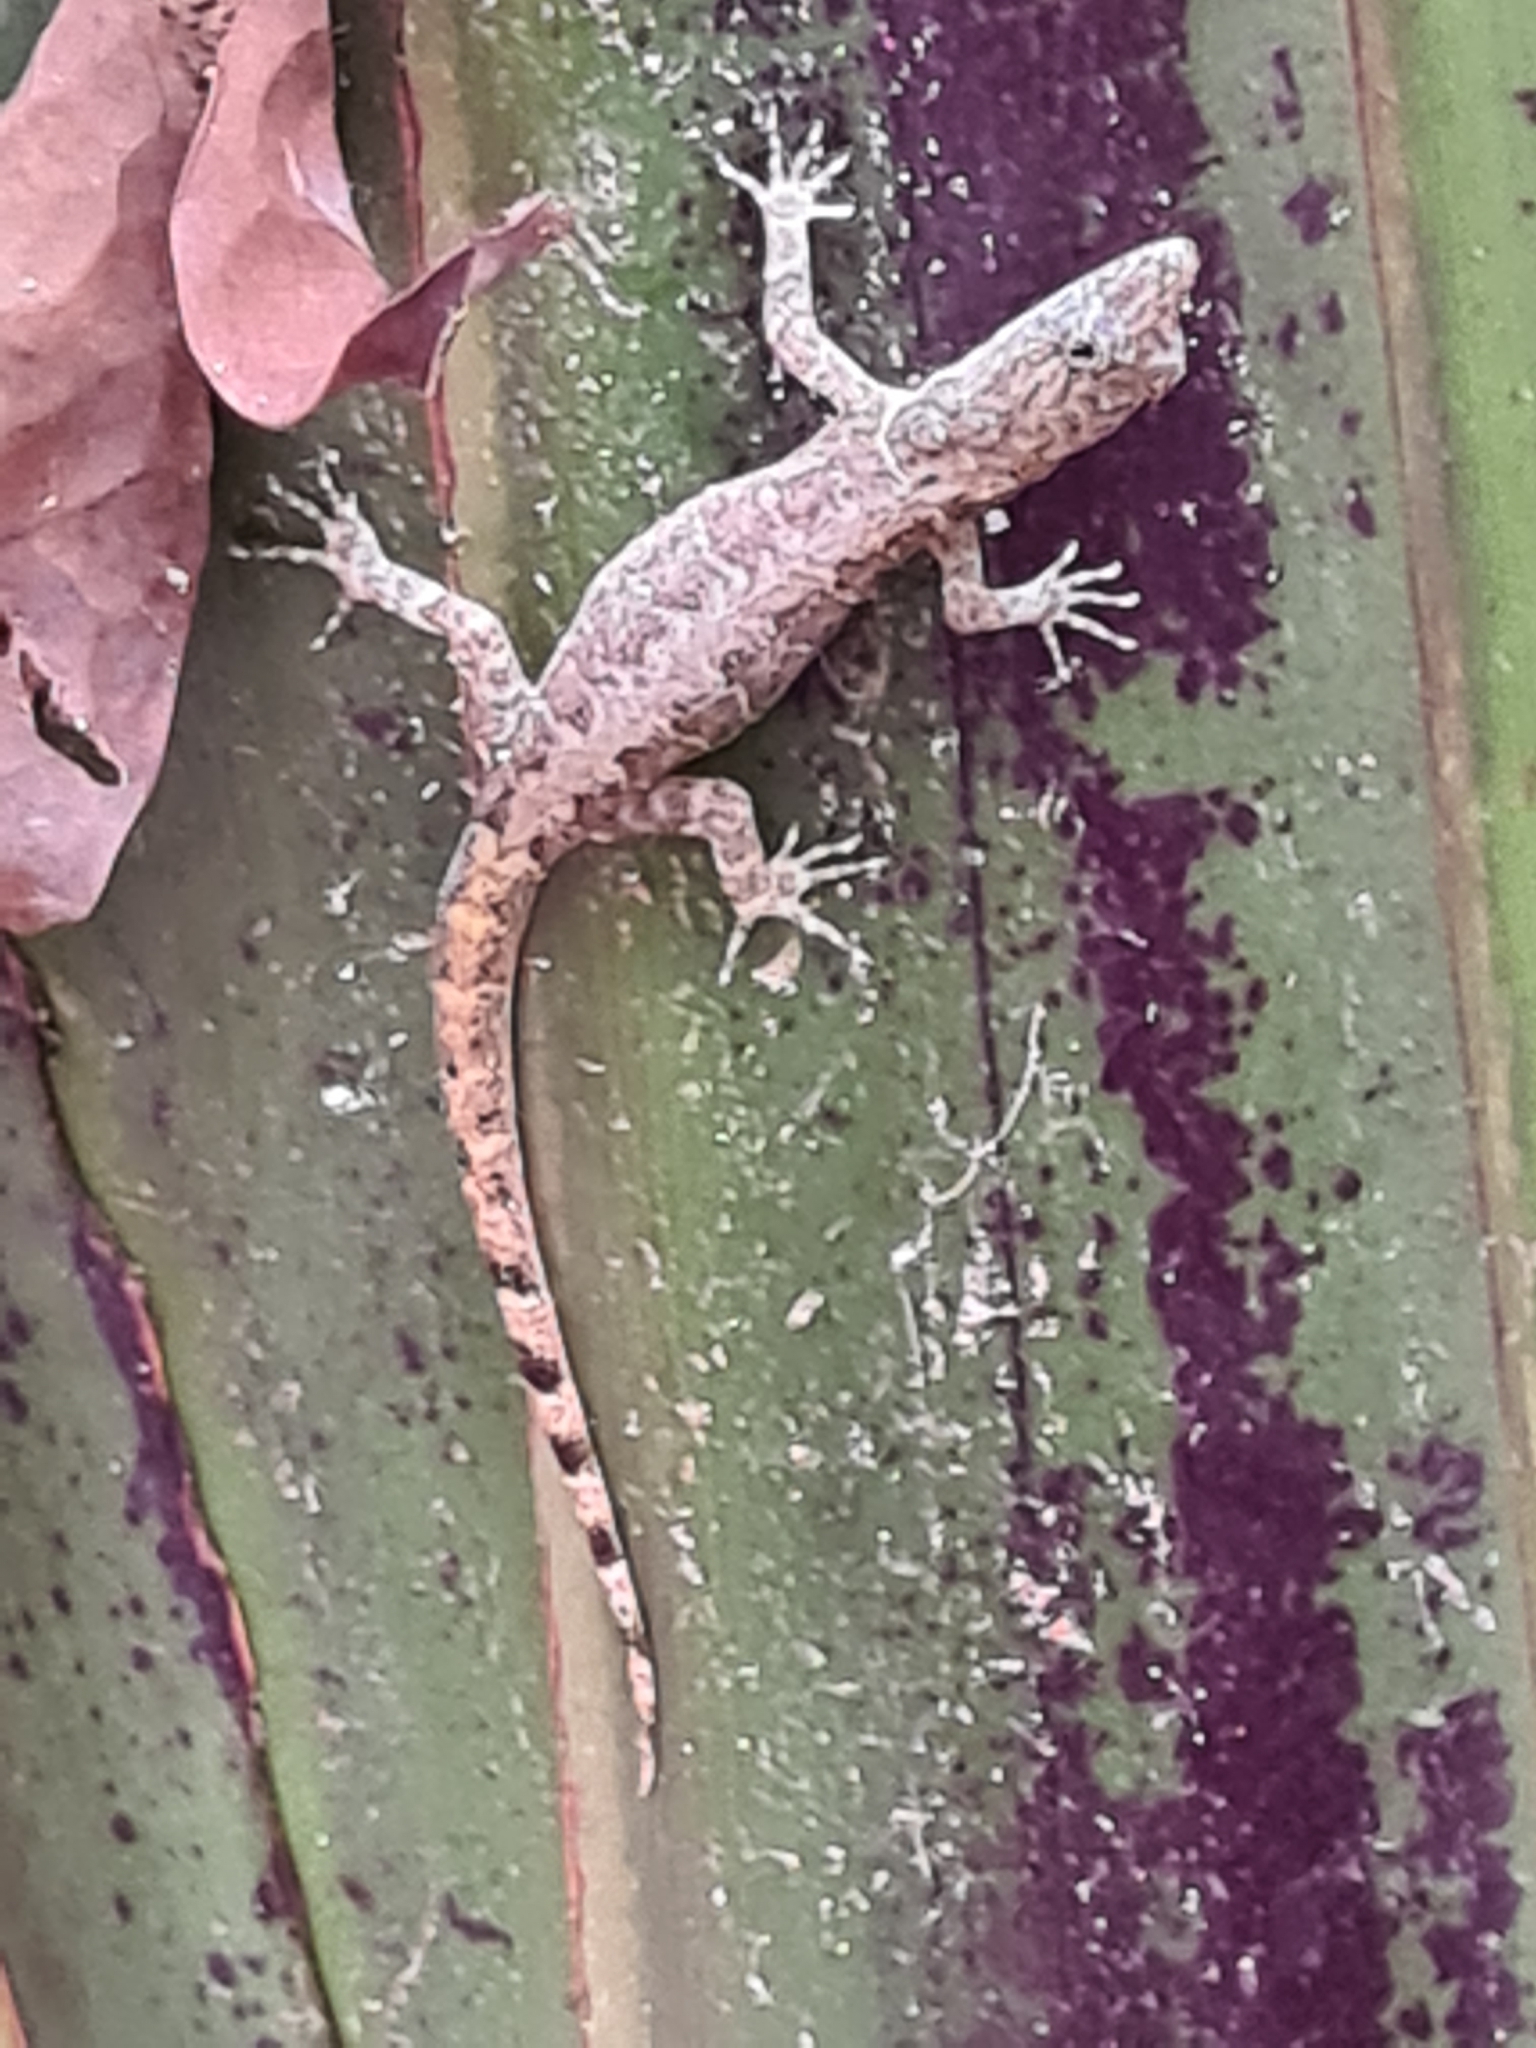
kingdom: Animalia
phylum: Chordata
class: Squamata
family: Sphaerodactylidae
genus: Gonatodes
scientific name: Gonatodes humeralis
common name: South american clawed gecko
